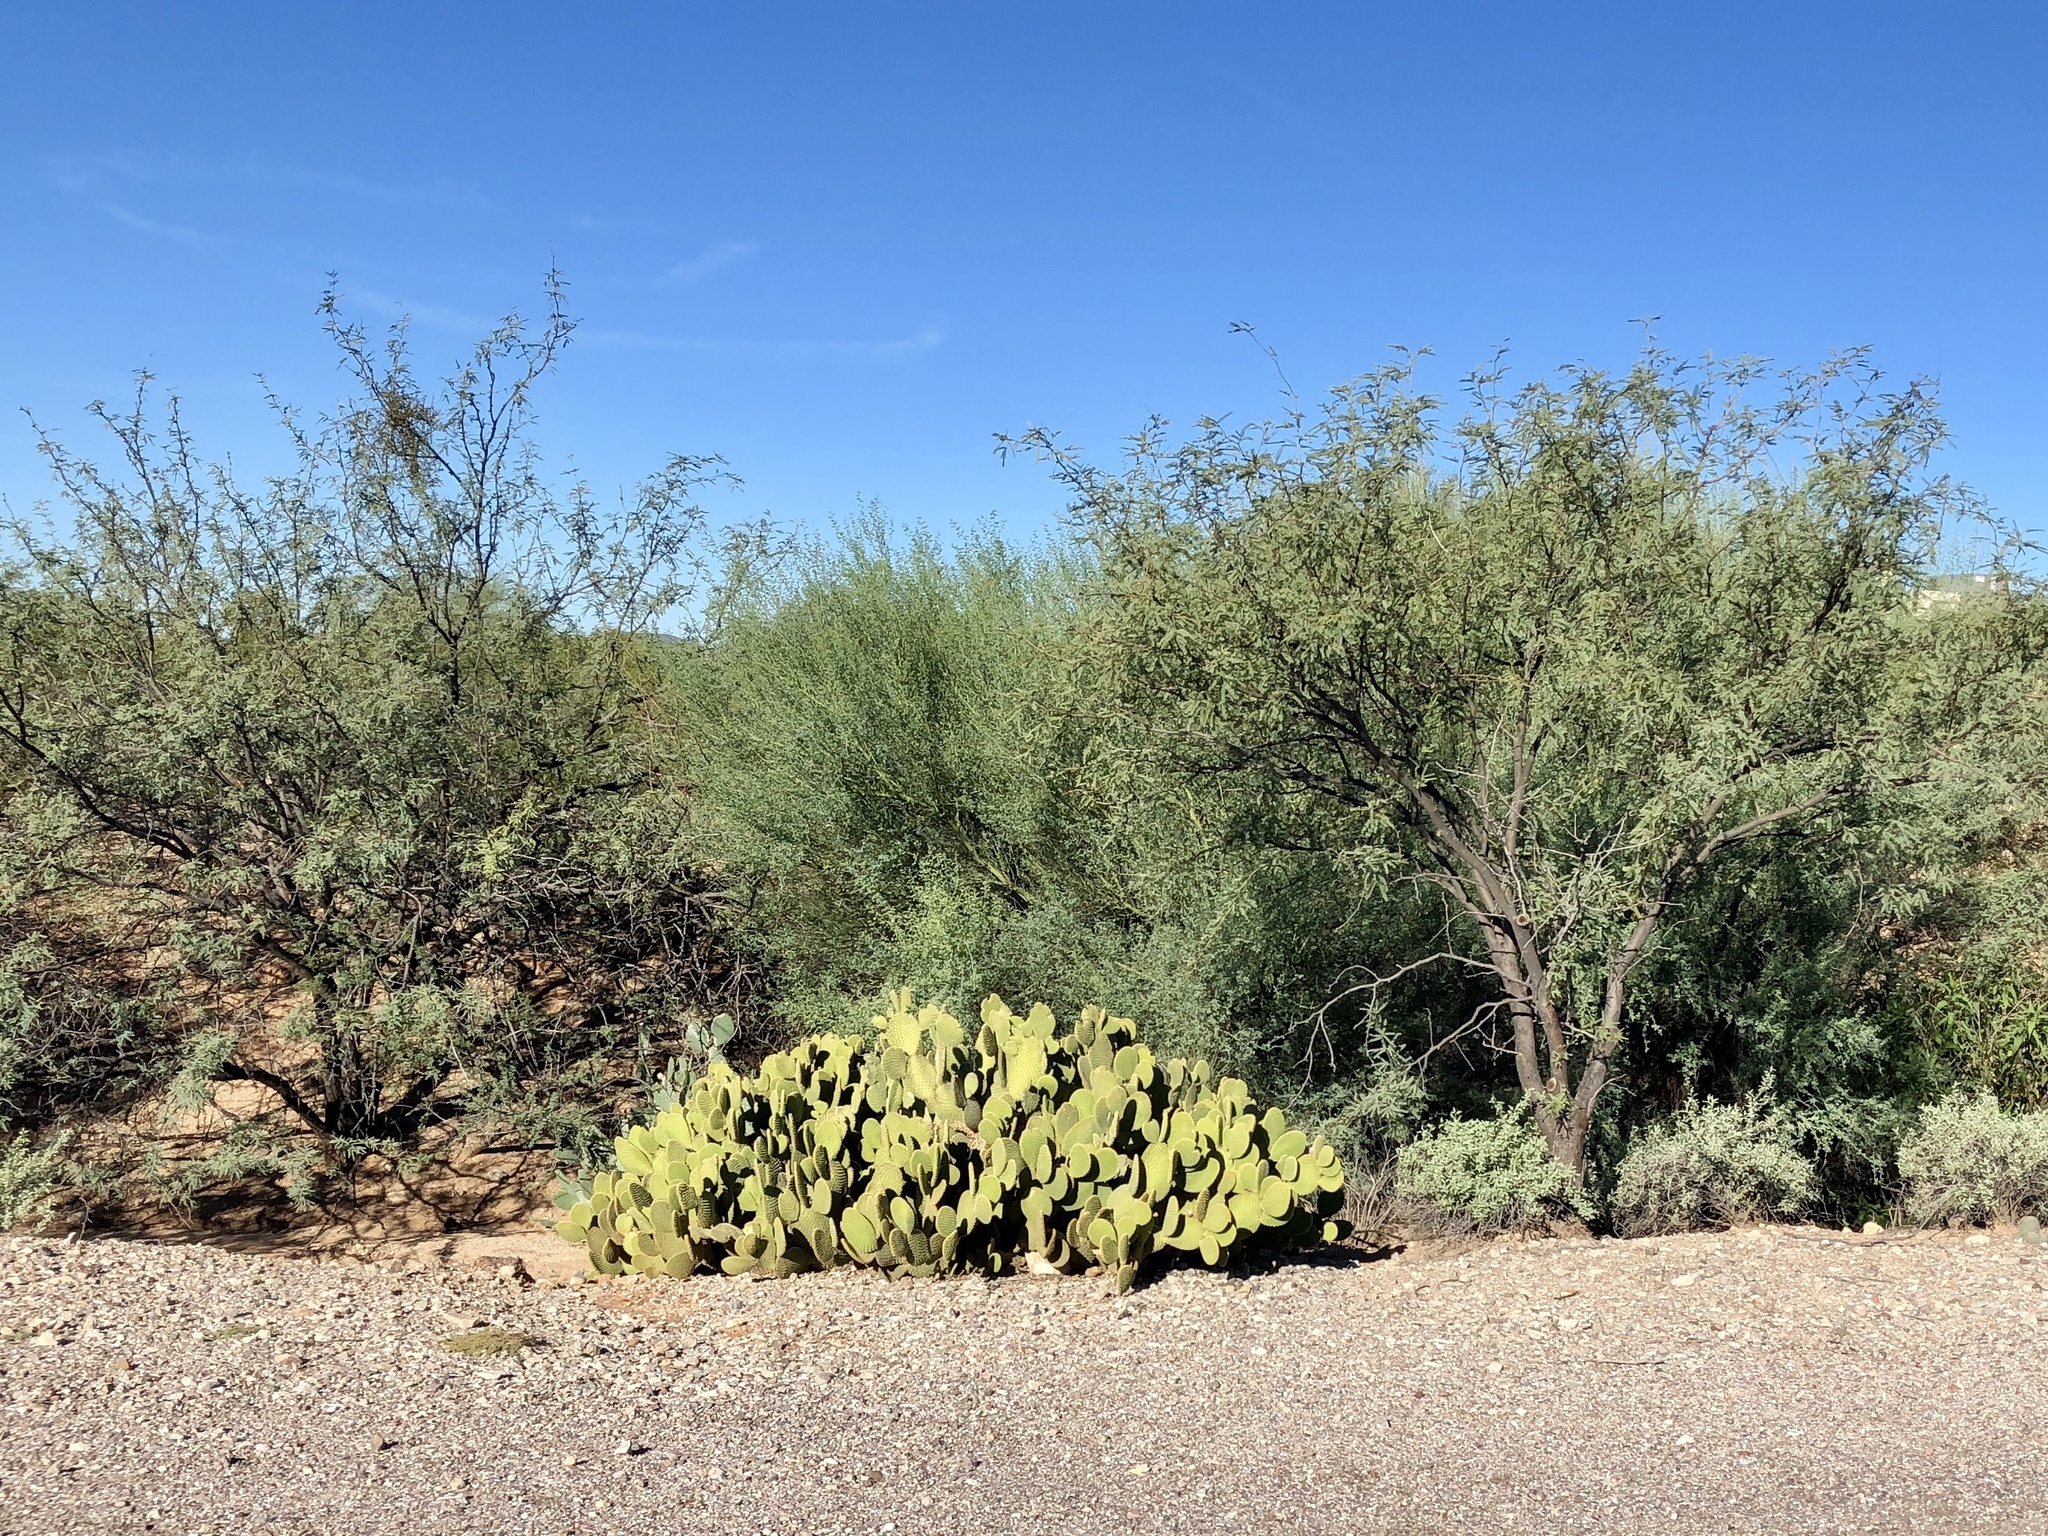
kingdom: Plantae
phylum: Tracheophyta
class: Magnoliopsida
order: Caryophyllales
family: Cactaceae
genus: Opuntia
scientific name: Opuntia microdasys
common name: Angel's-wings
